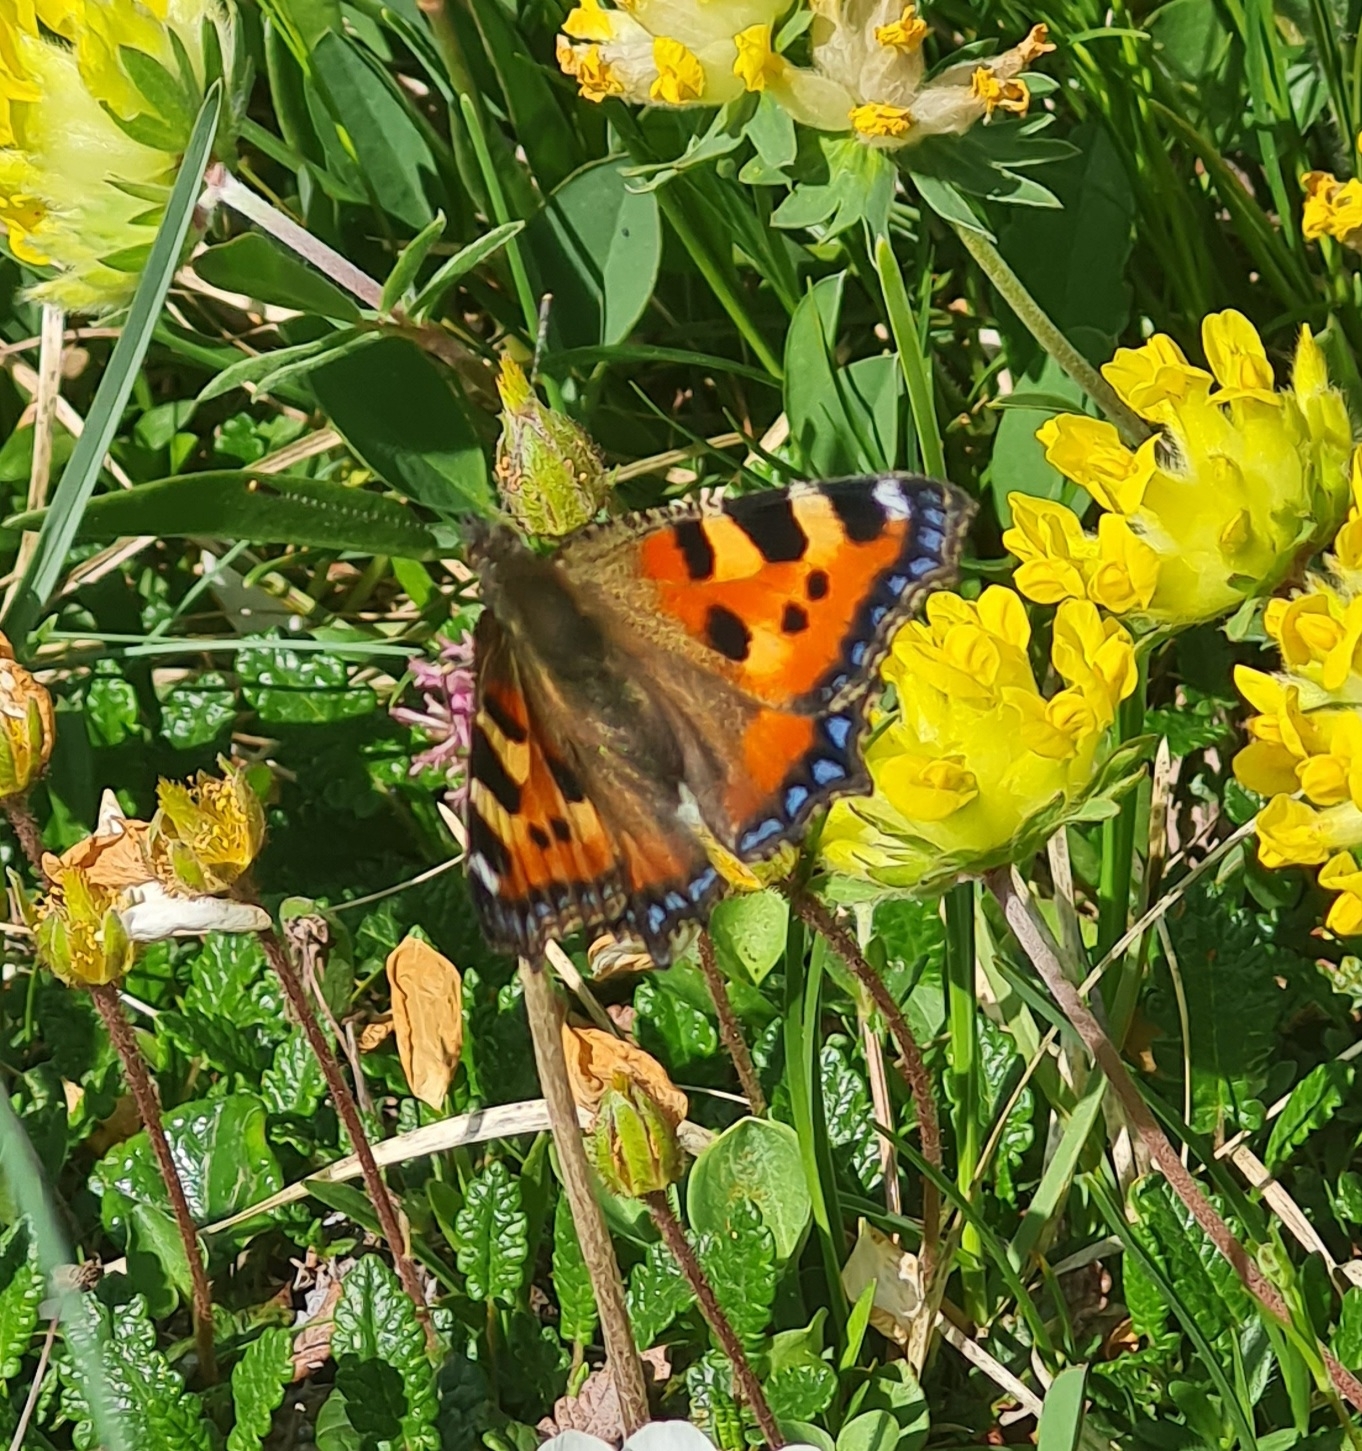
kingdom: Animalia
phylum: Arthropoda
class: Insecta
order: Lepidoptera
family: Nymphalidae
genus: Aglais
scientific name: Aglais urticae
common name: Small tortoiseshell
